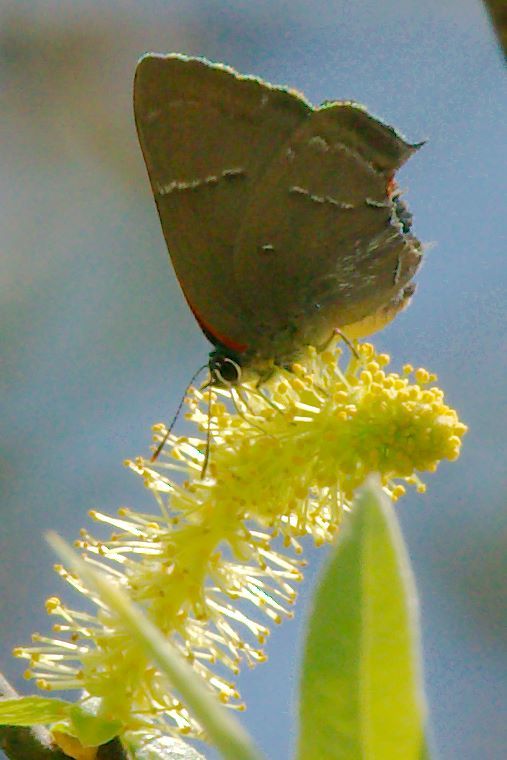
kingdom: Animalia
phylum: Arthropoda
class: Insecta
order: Lepidoptera
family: Lycaenidae
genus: Parrhasius
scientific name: Parrhasius m-album
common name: White m hairstreak
